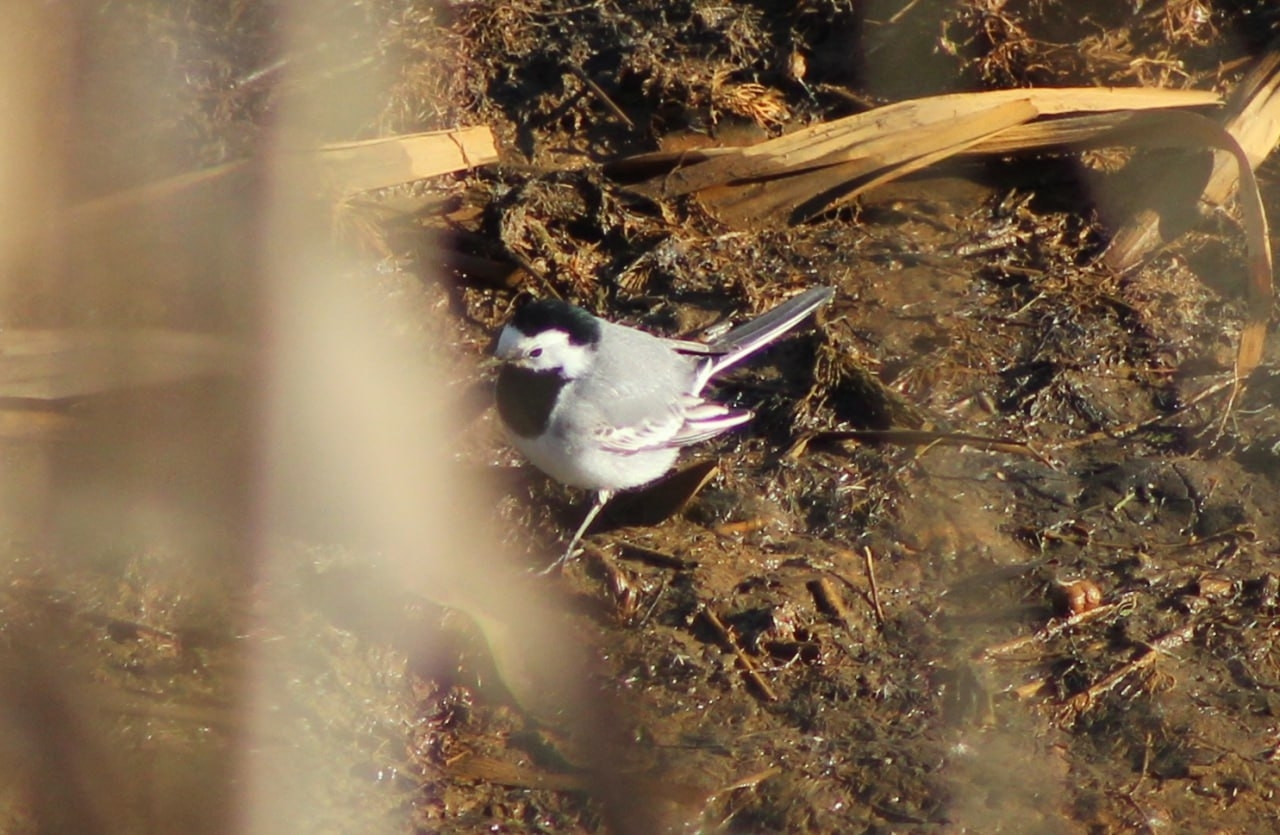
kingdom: Animalia
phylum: Chordata
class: Aves
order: Passeriformes
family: Motacillidae
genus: Motacilla
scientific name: Motacilla alba
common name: White wagtail
